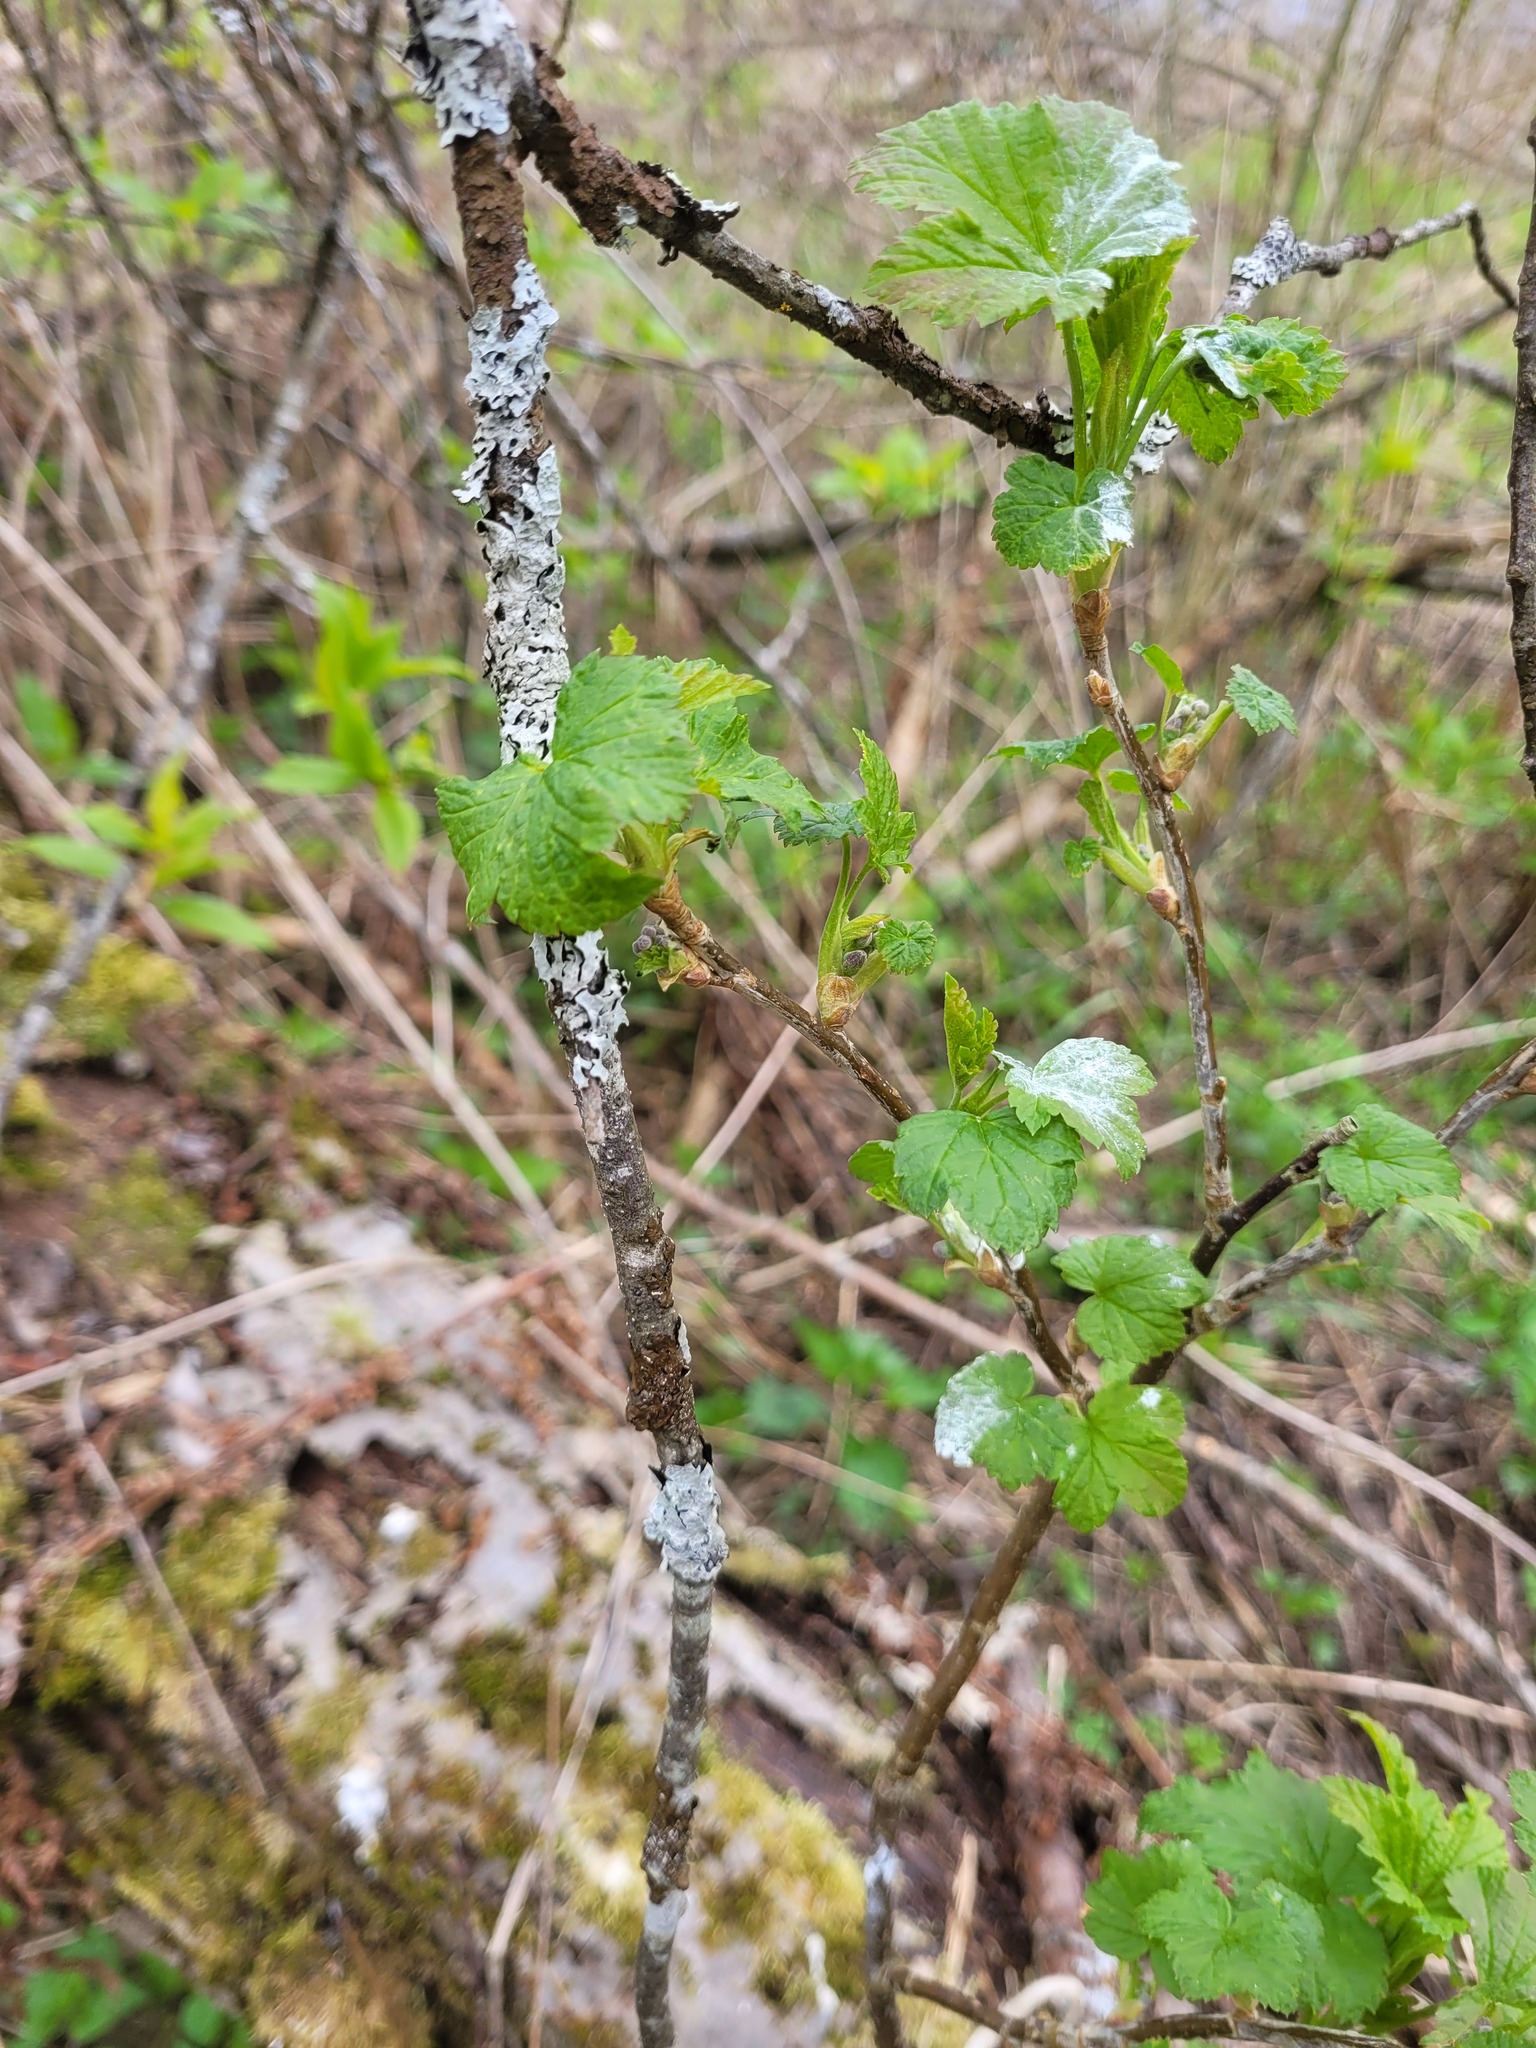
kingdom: Plantae
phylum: Tracheophyta
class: Magnoliopsida
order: Saxifragales
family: Grossulariaceae
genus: Ribes
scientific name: Ribes nigrum
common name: Black currant
